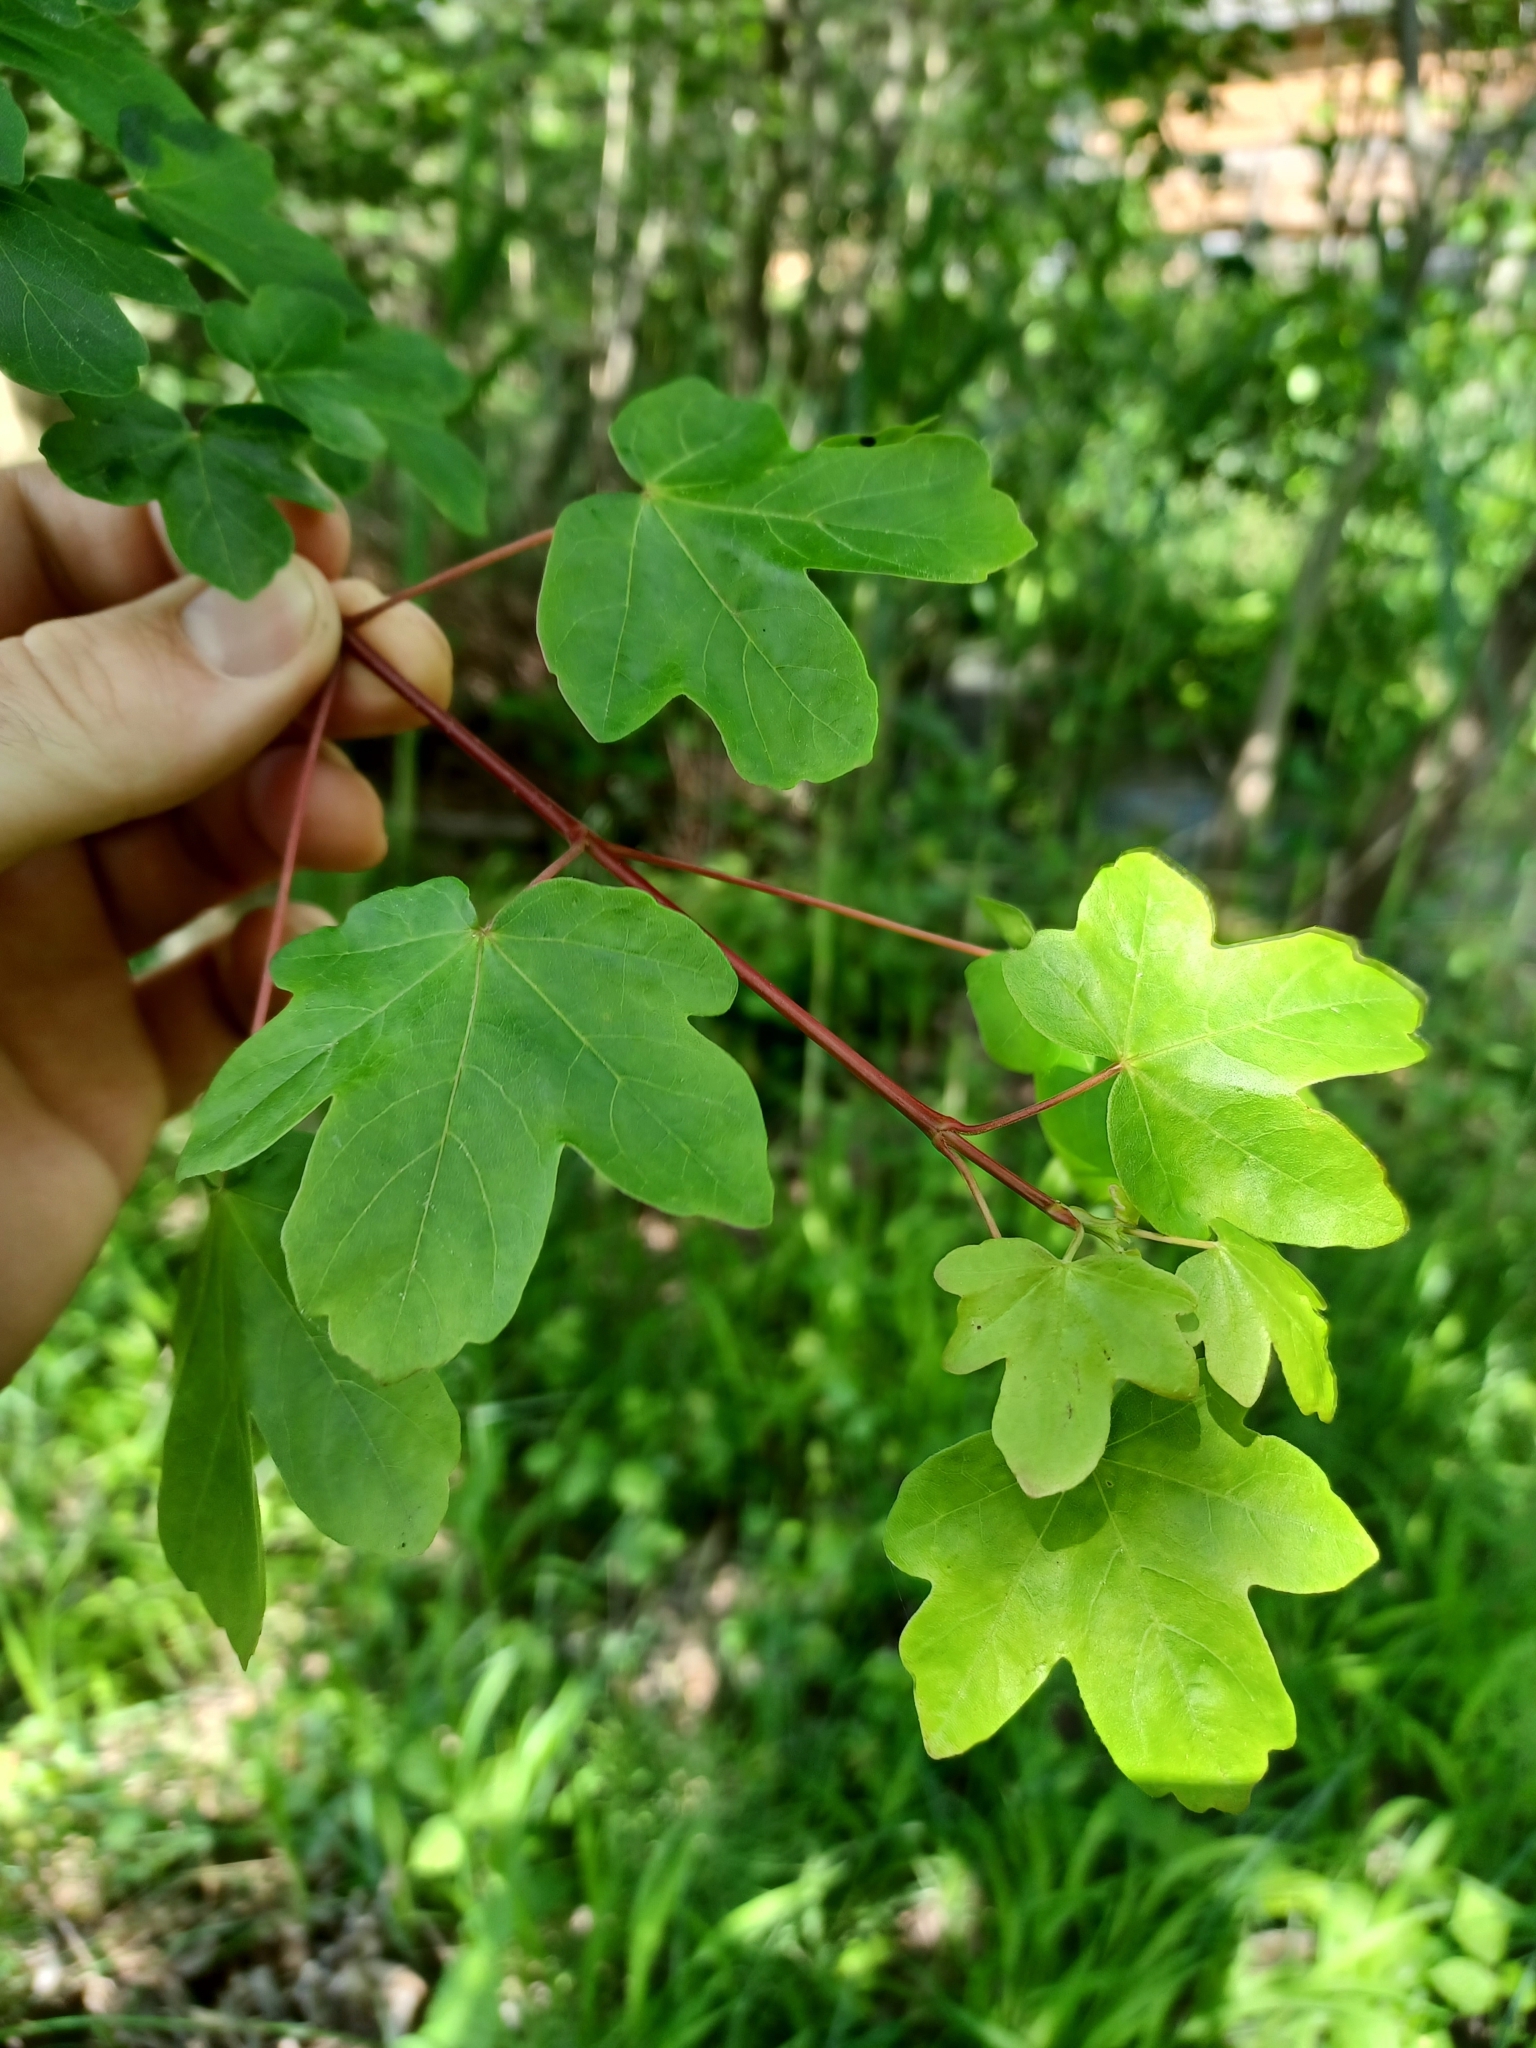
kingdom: Plantae
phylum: Tracheophyta
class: Magnoliopsida
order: Sapindales
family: Sapindaceae
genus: Acer
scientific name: Acer campestre
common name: Field maple
